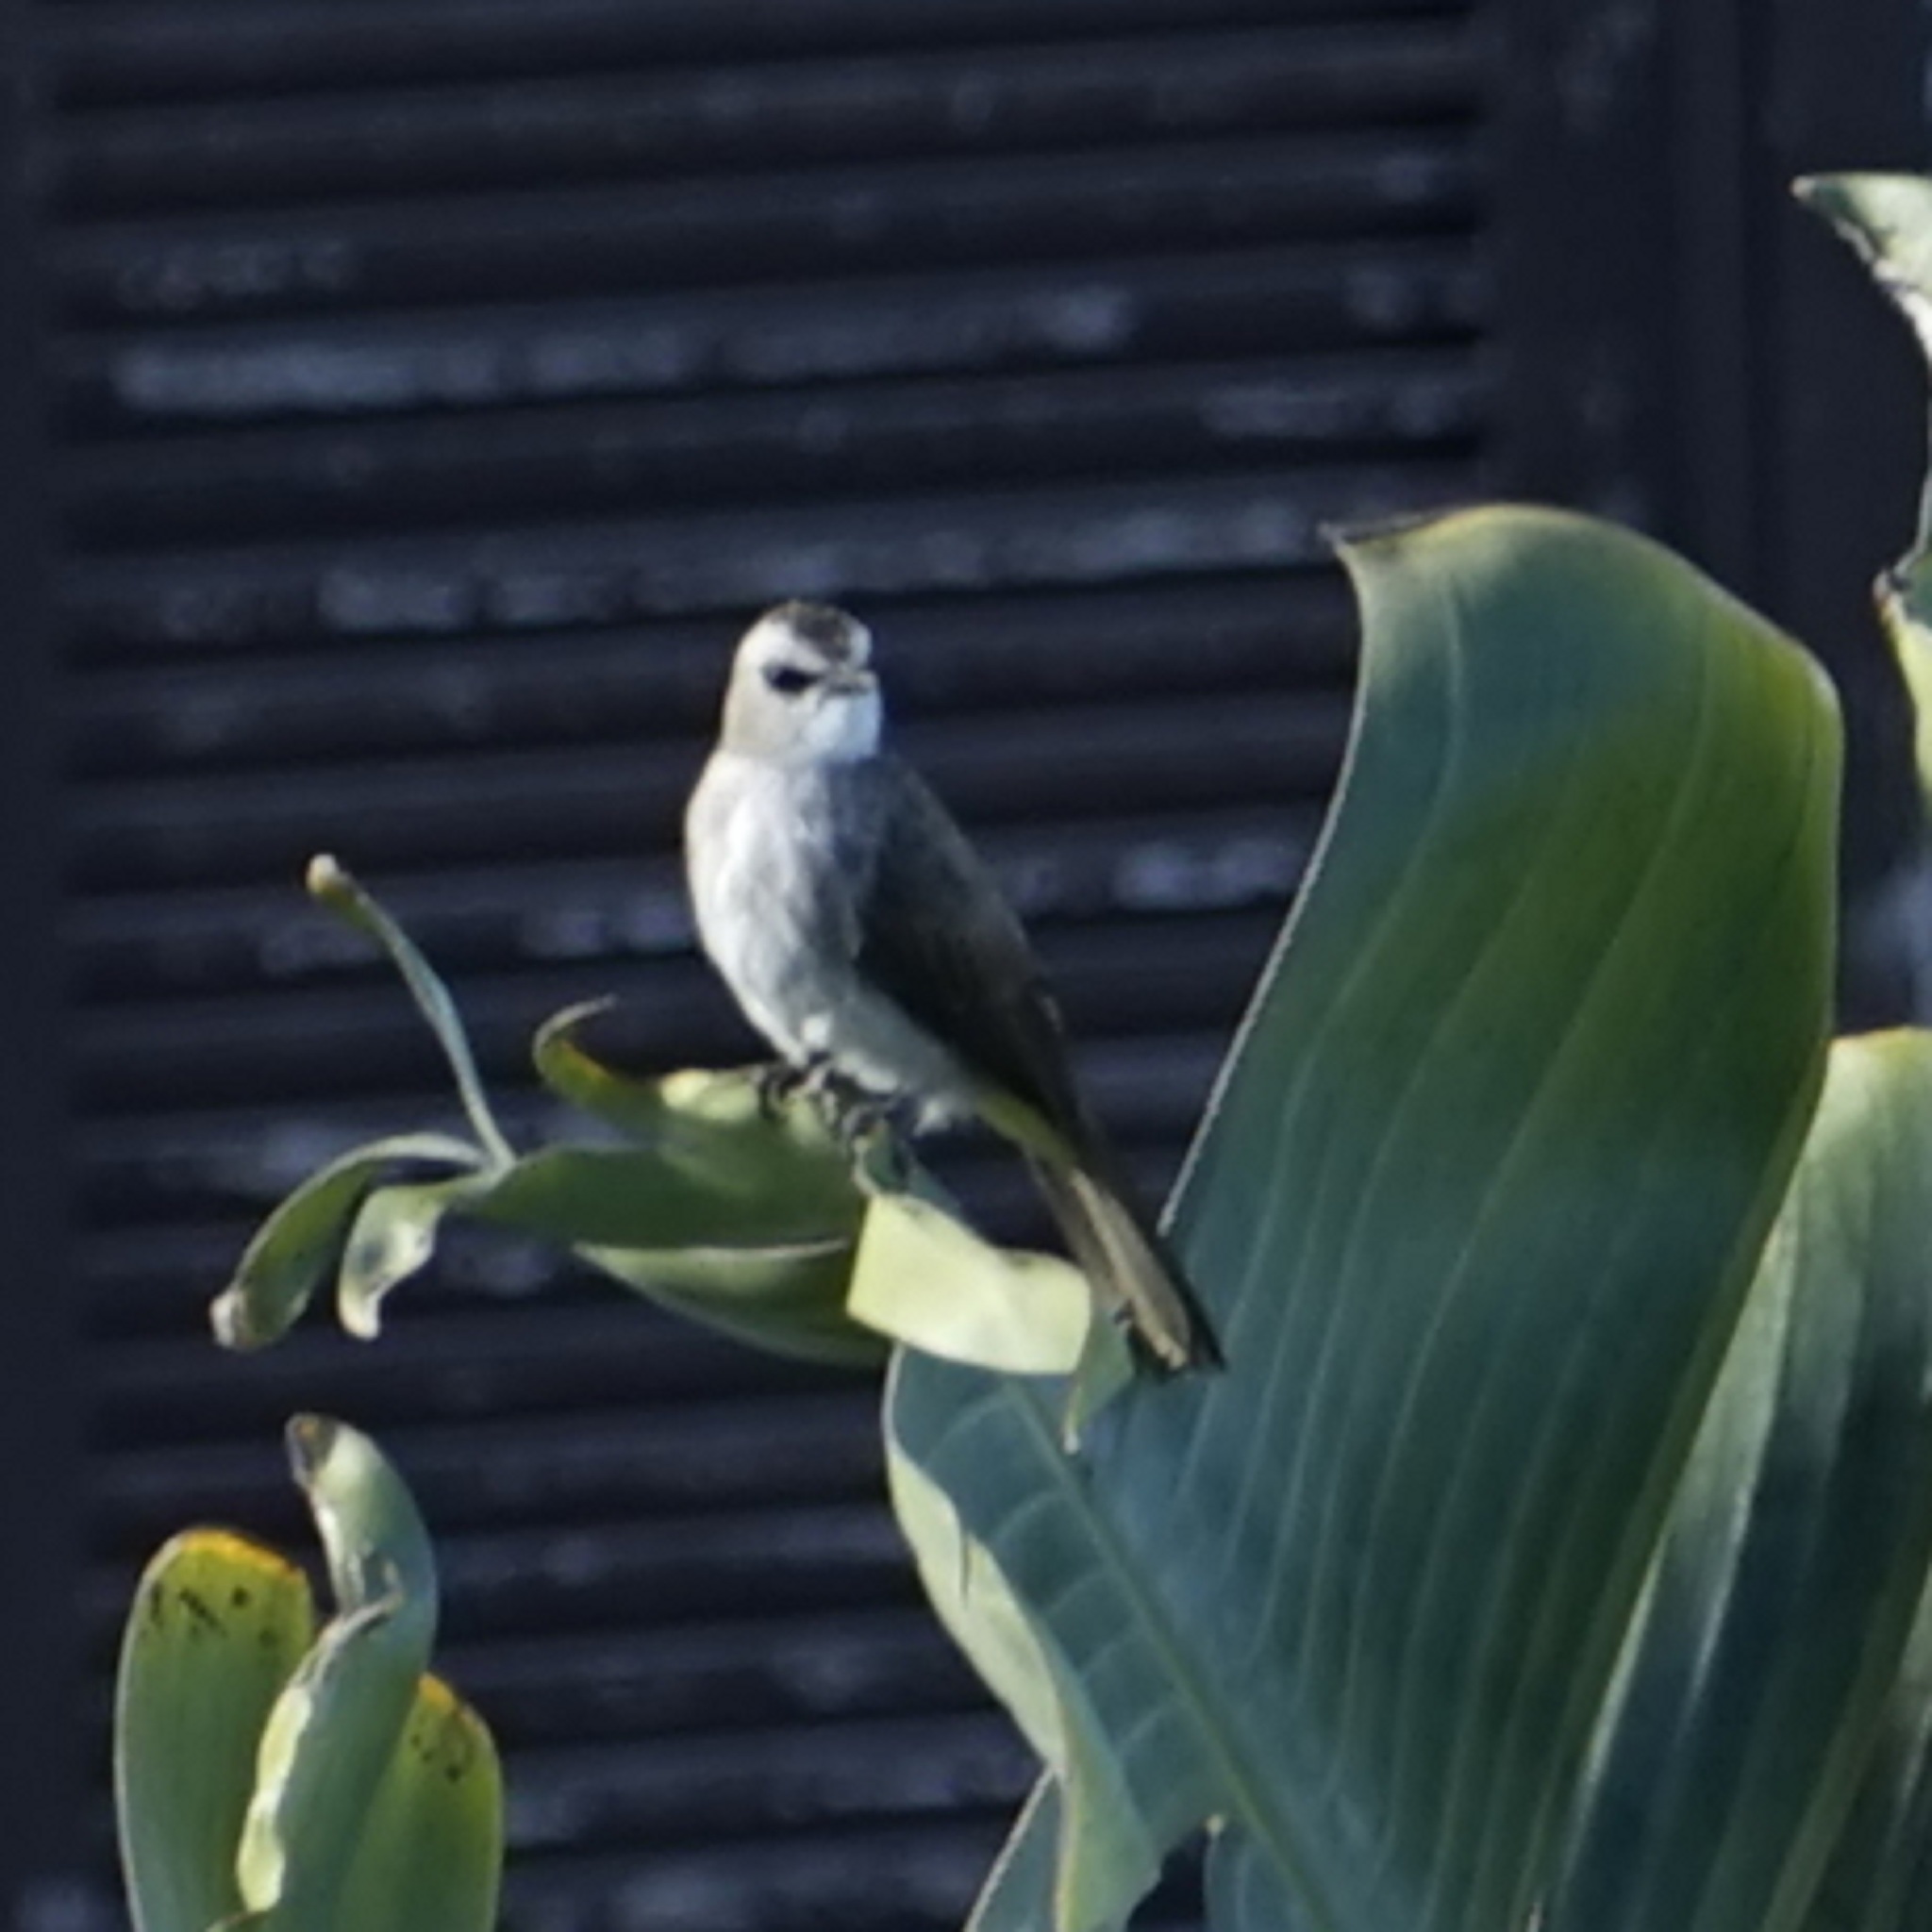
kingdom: Animalia
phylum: Chordata
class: Aves
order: Passeriformes
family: Pycnonotidae
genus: Pycnonotus
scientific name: Pycnonotus goiavier
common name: Yellow-vented bulbul
